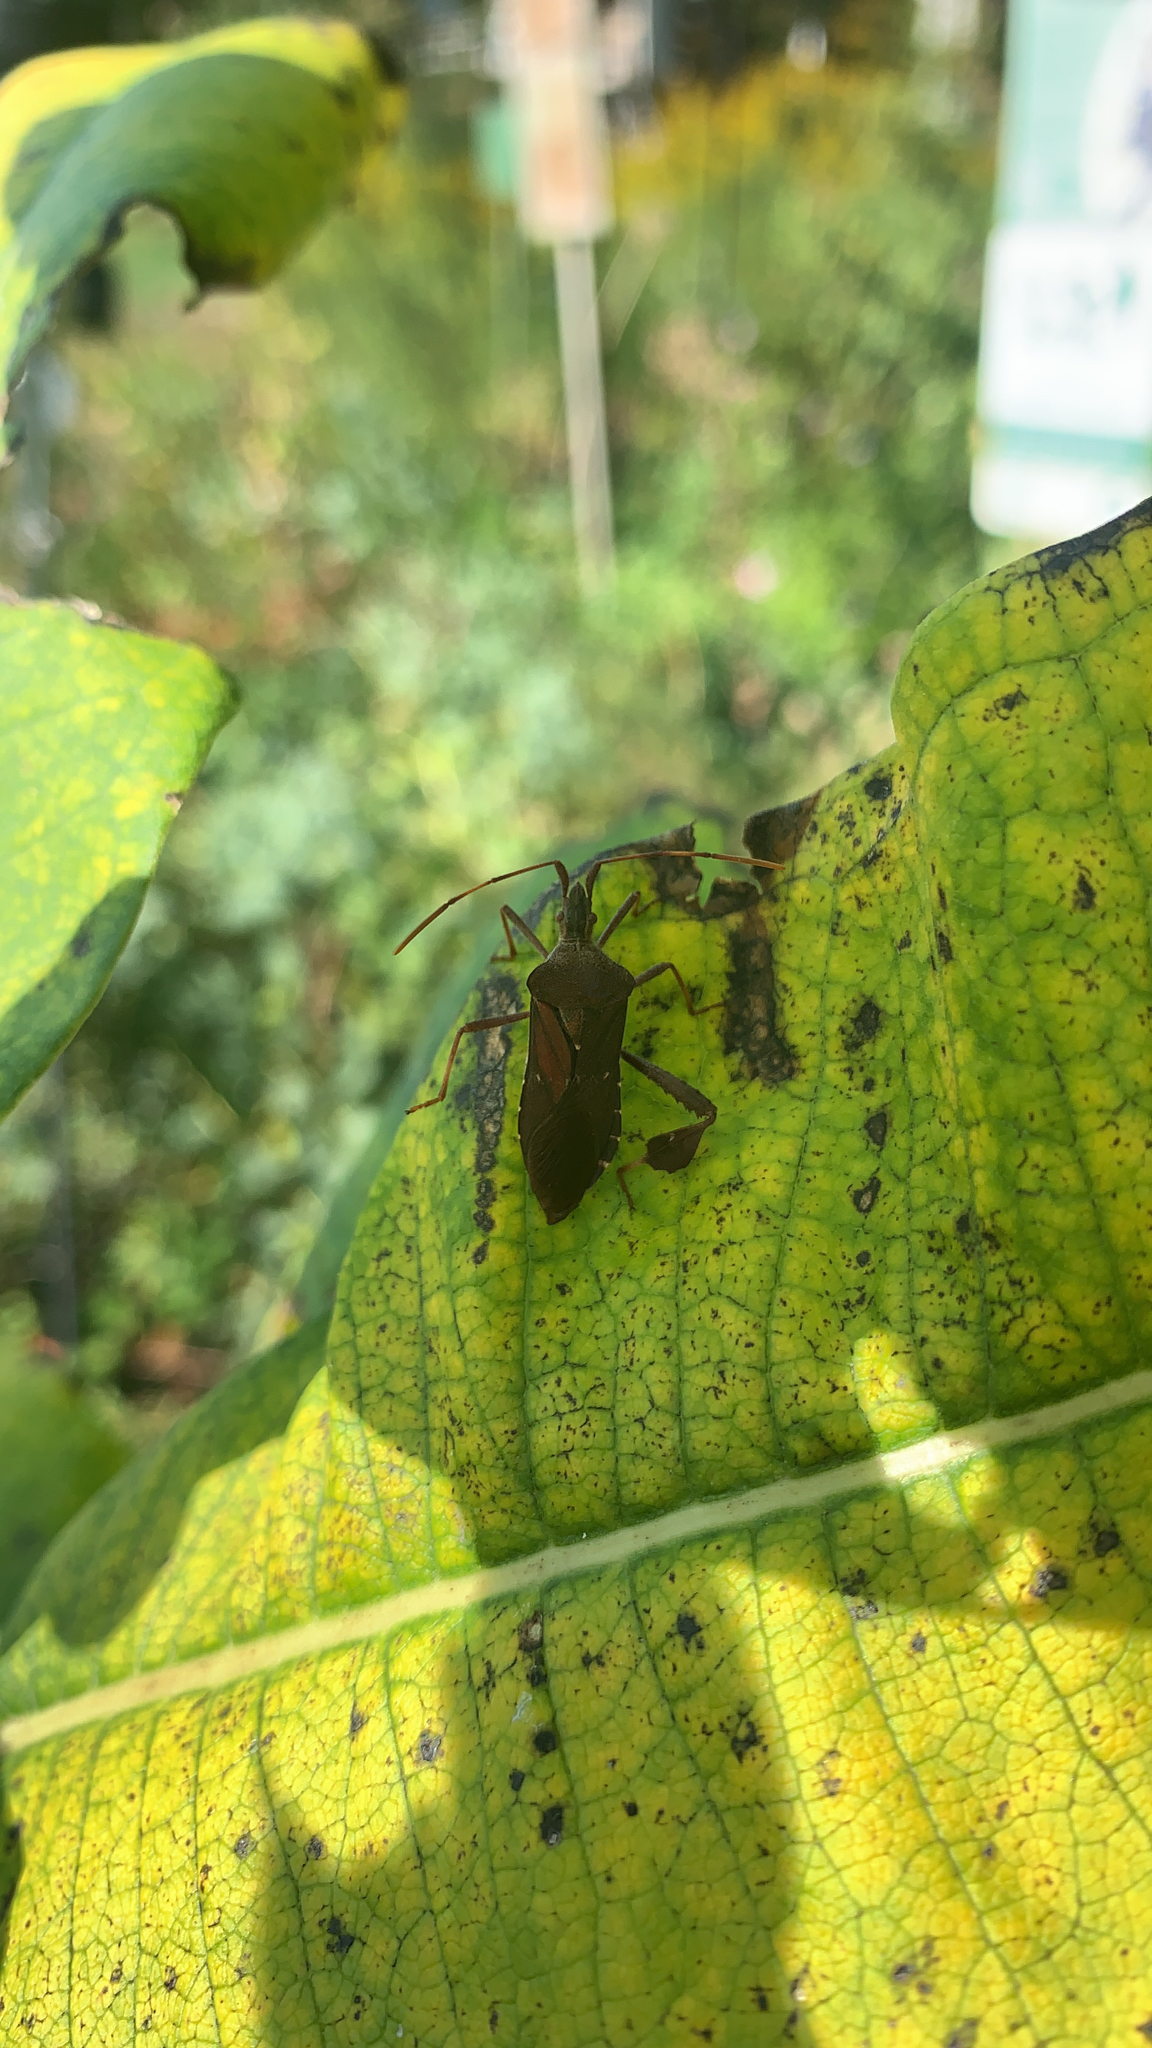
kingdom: Animalia
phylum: Arthropoda
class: Insecta
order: Hemiptera
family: Coreidae
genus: Leptoglossus
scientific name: Leptoglossus oppositus
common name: Northern leaf-footed bug
